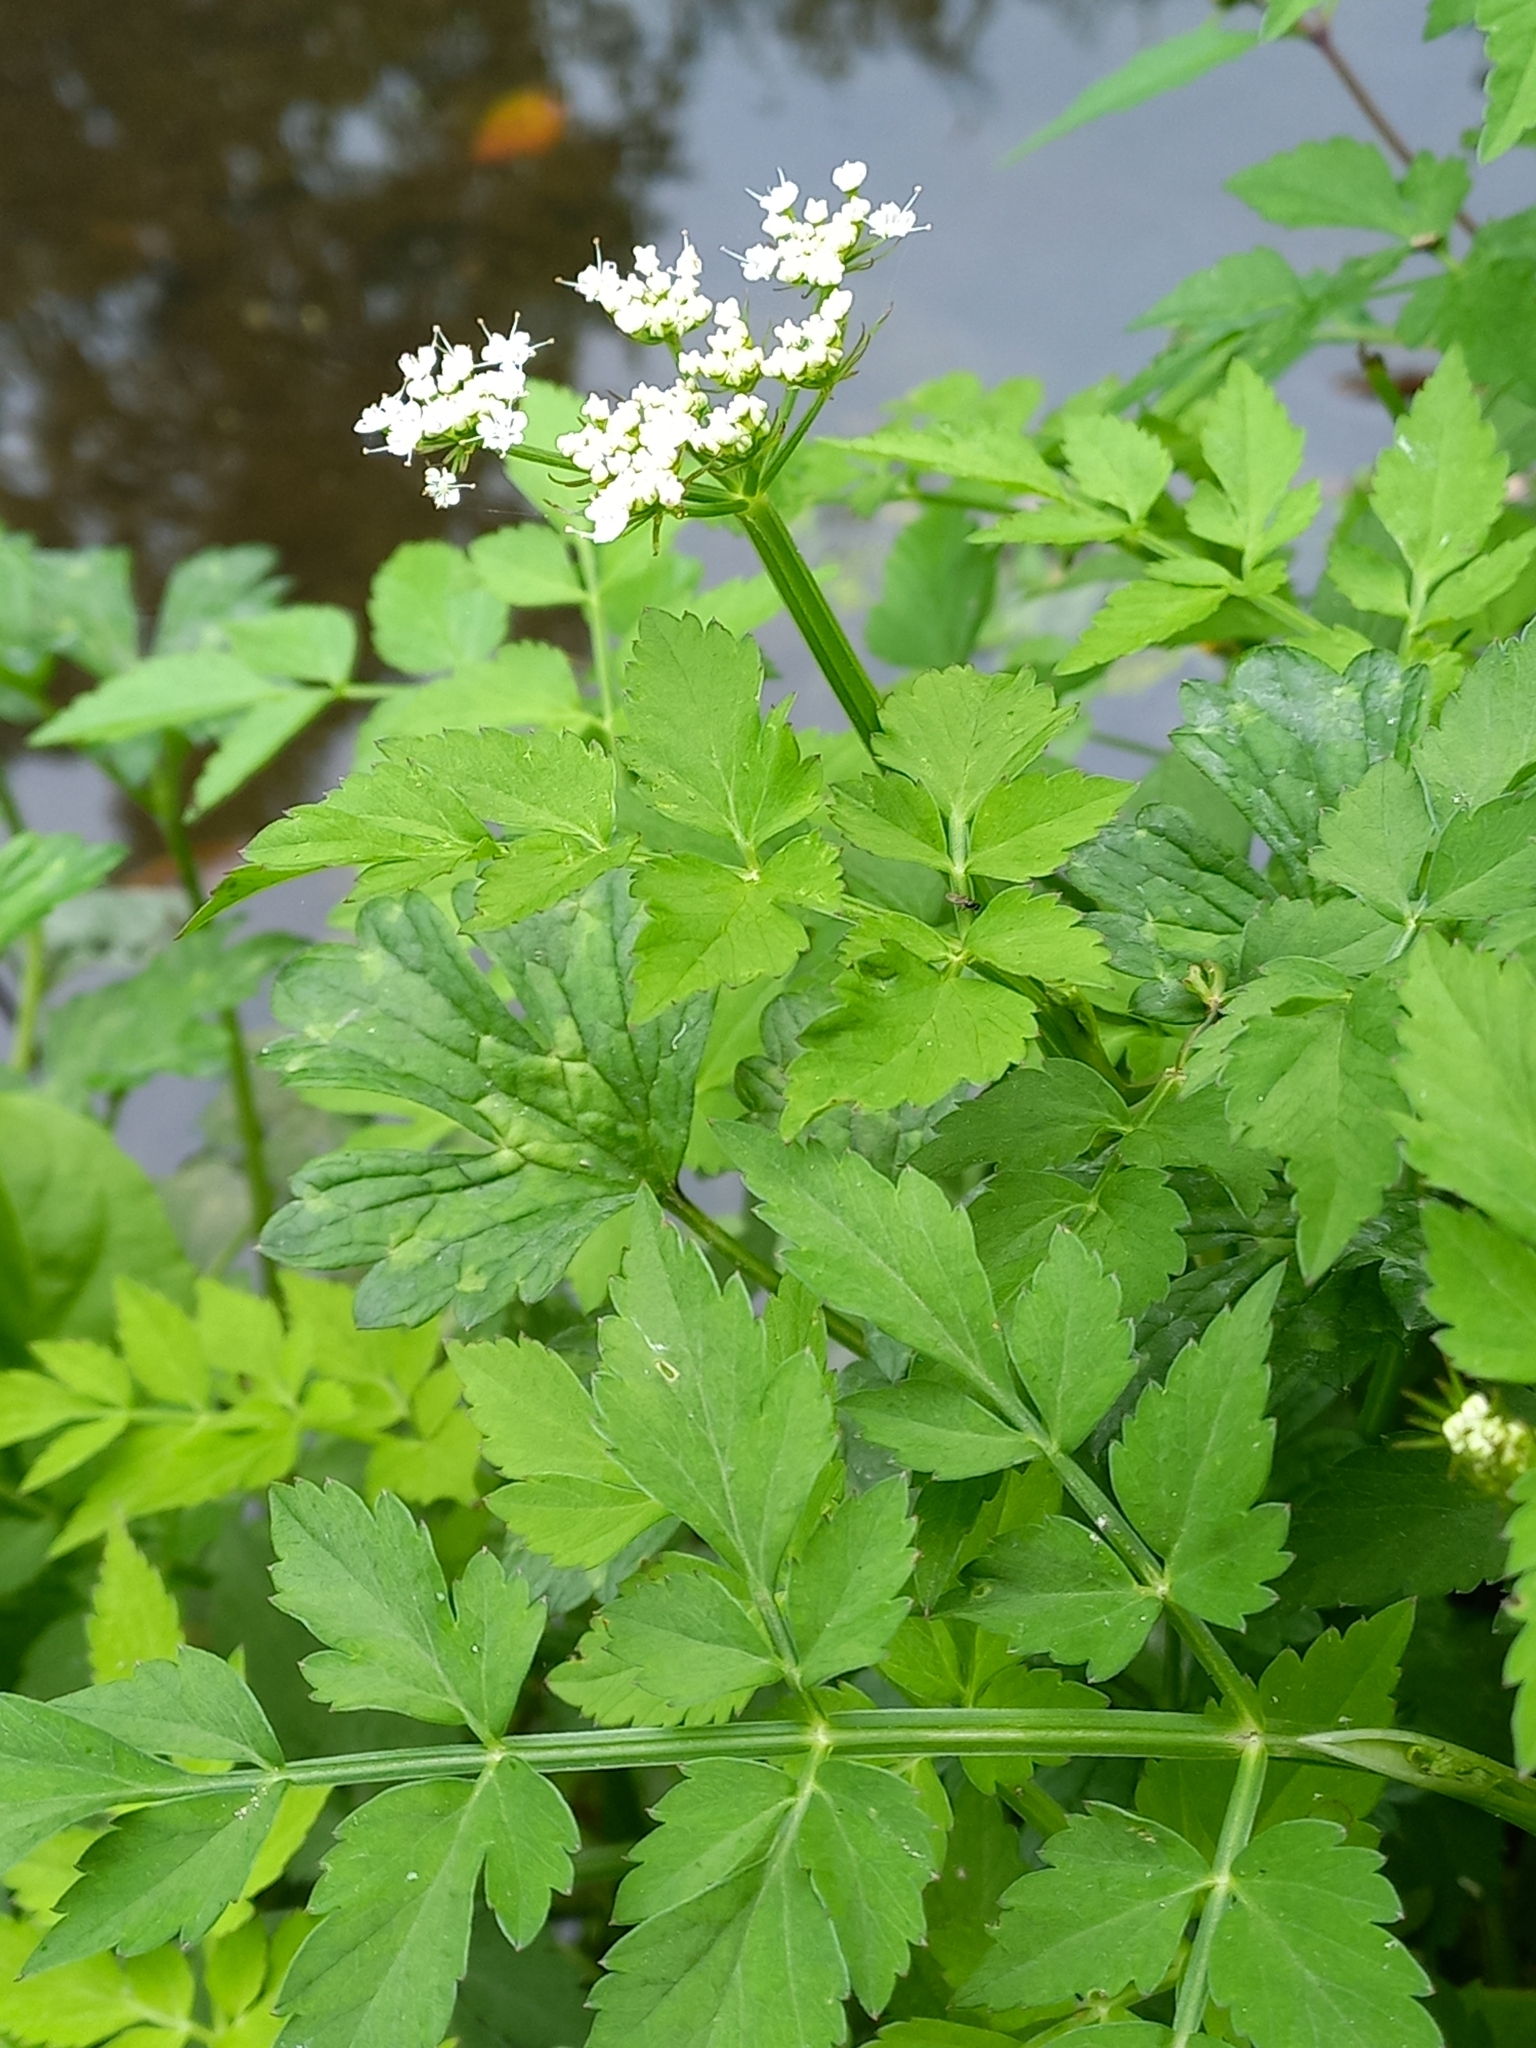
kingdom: Plantae
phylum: Tracheophyta
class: Magnoliopsida
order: Apiales
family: Apiaceae
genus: Oenanthe
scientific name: Oenanthe javanica
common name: Java water-dropwort
